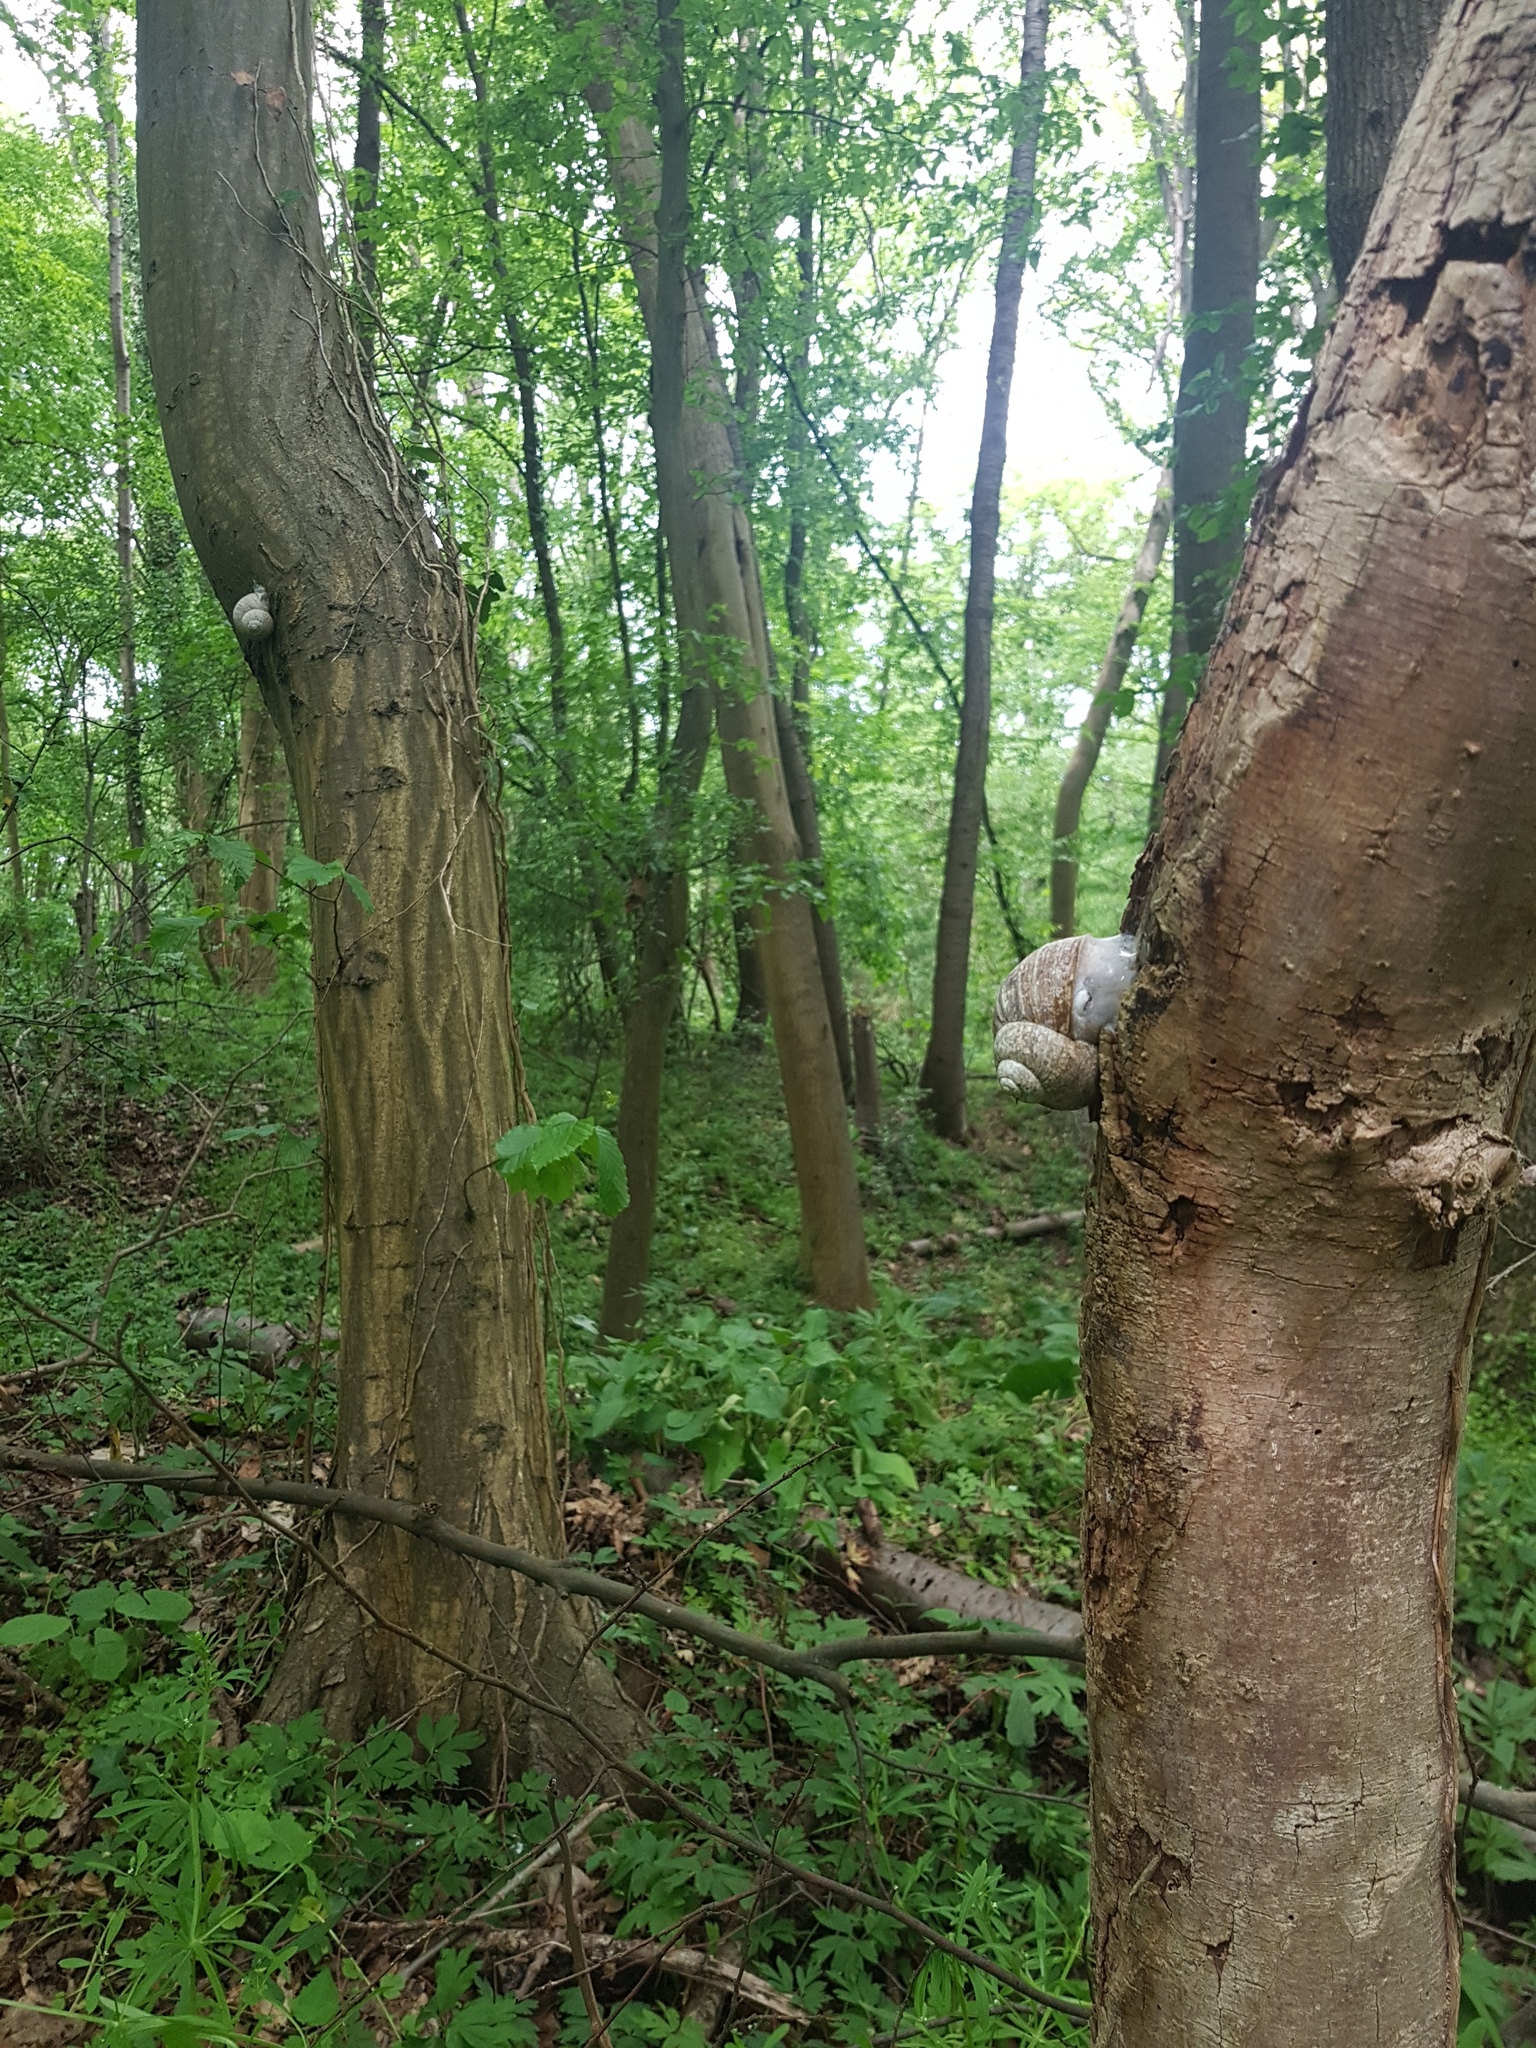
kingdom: Animalia
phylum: Mollusca
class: Gastropoda
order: Stylommatophora
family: Helicidae
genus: Helix
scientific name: Helix pomatia
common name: Roman snail
